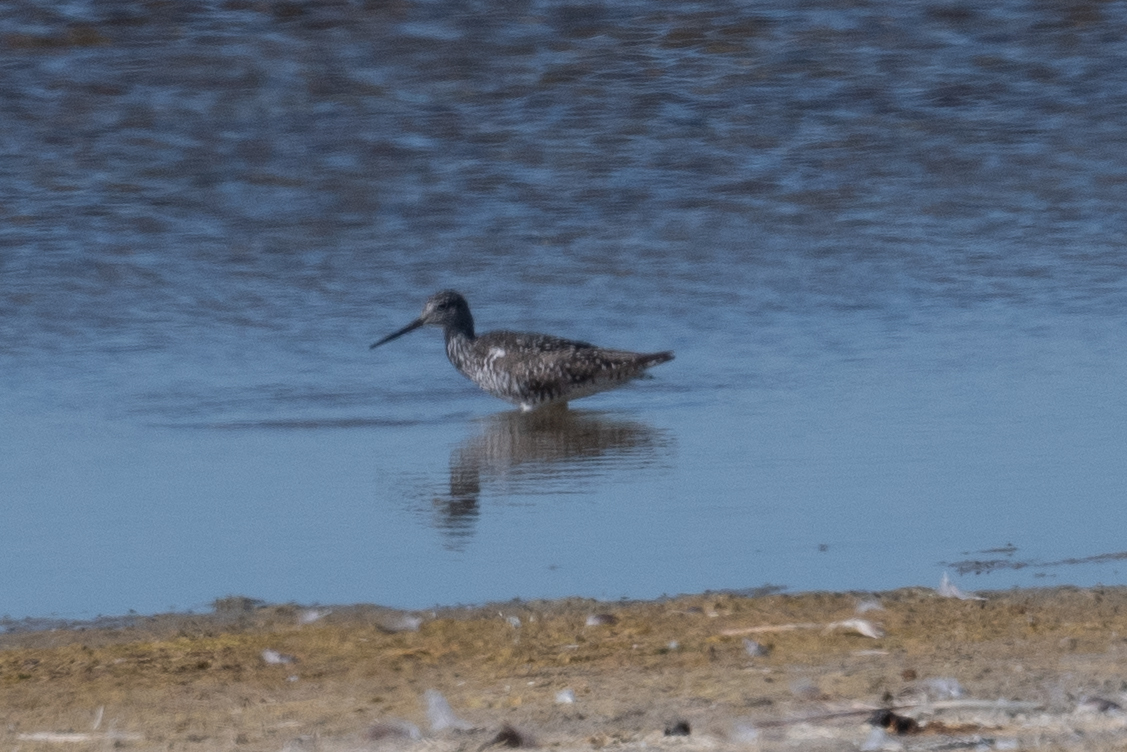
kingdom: Animalia
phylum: Chordata
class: Aves
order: Charadriiformes
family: Scolopacidae
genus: Tringa
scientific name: Tringa melanoleuca
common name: Greater yellowlegs
